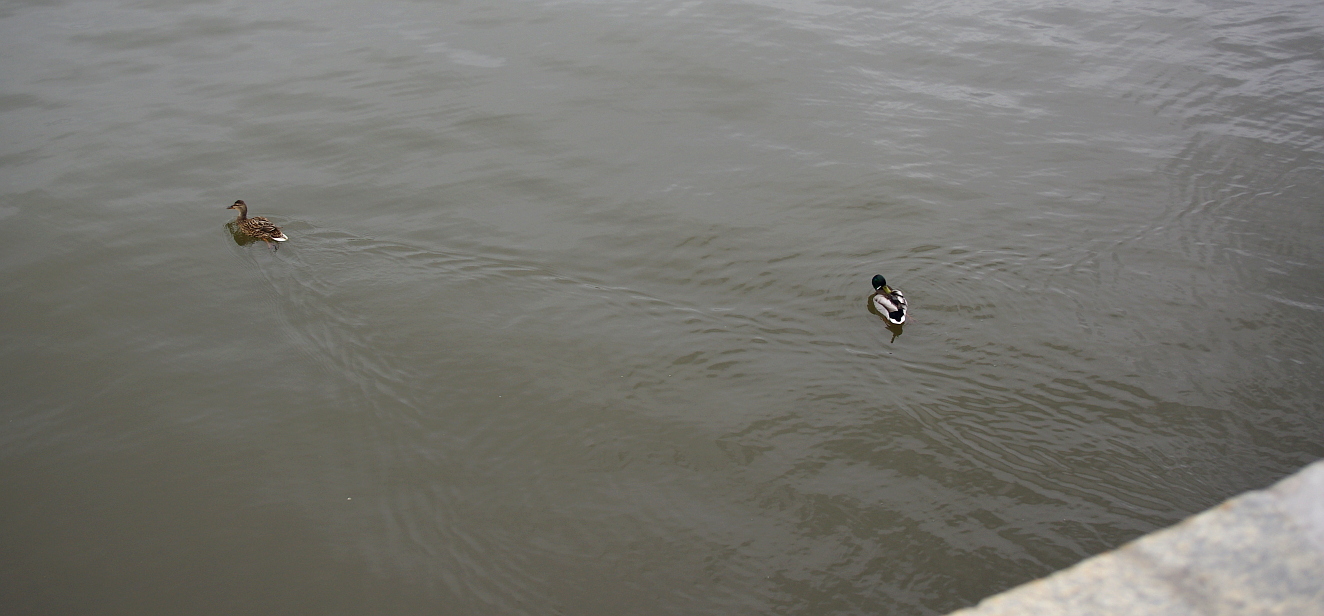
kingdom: Animalia
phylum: Chordata
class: Aves
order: Anseriformes
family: Anatidae
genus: Anas
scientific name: Anas platyrhynchos
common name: Mallard
